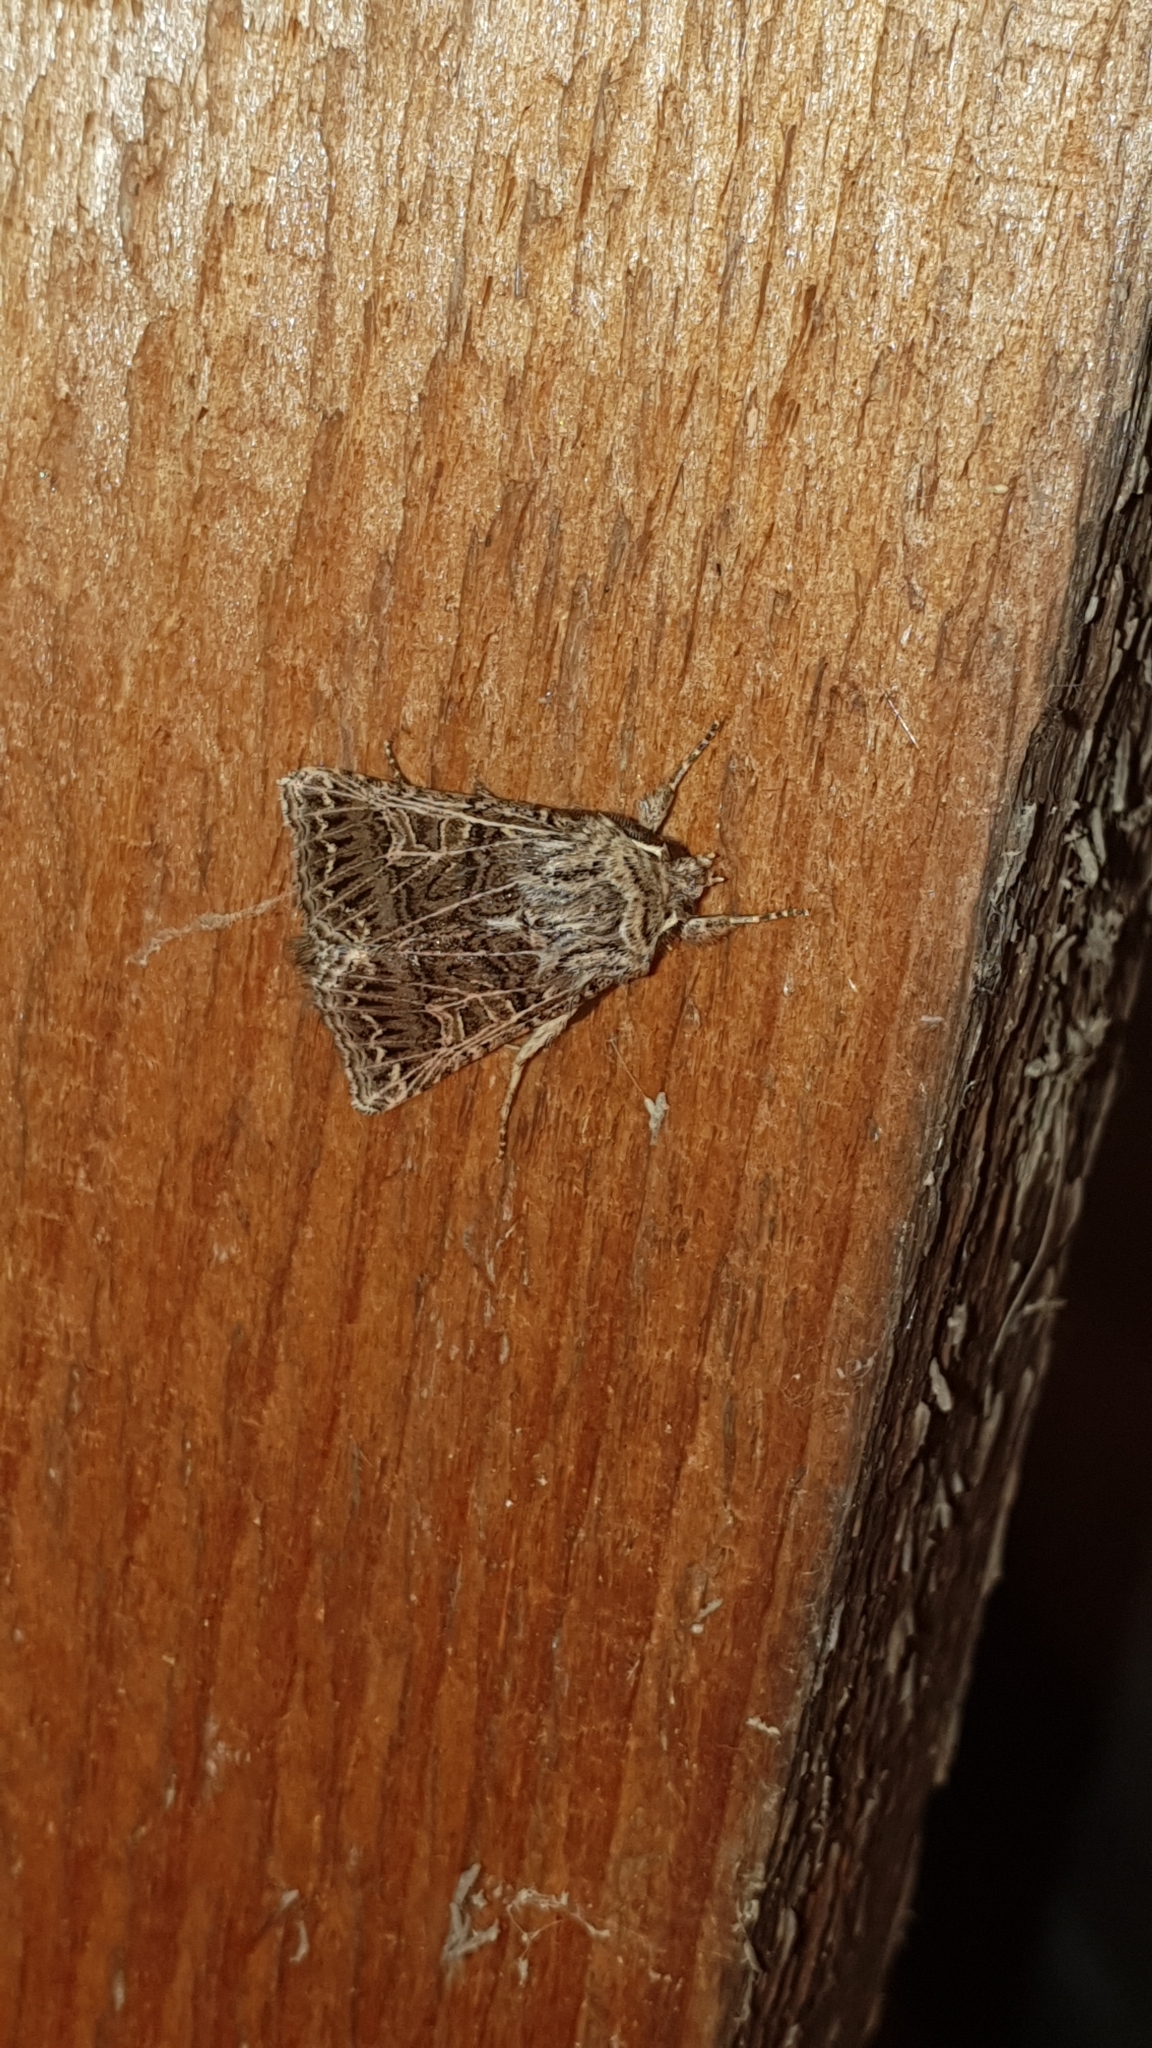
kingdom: Animalia
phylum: Arthropoda
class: Insecta
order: Lepidoptera
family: Noctuidae
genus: Tholera
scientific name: Tholera decimalis
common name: Feathered gothic
